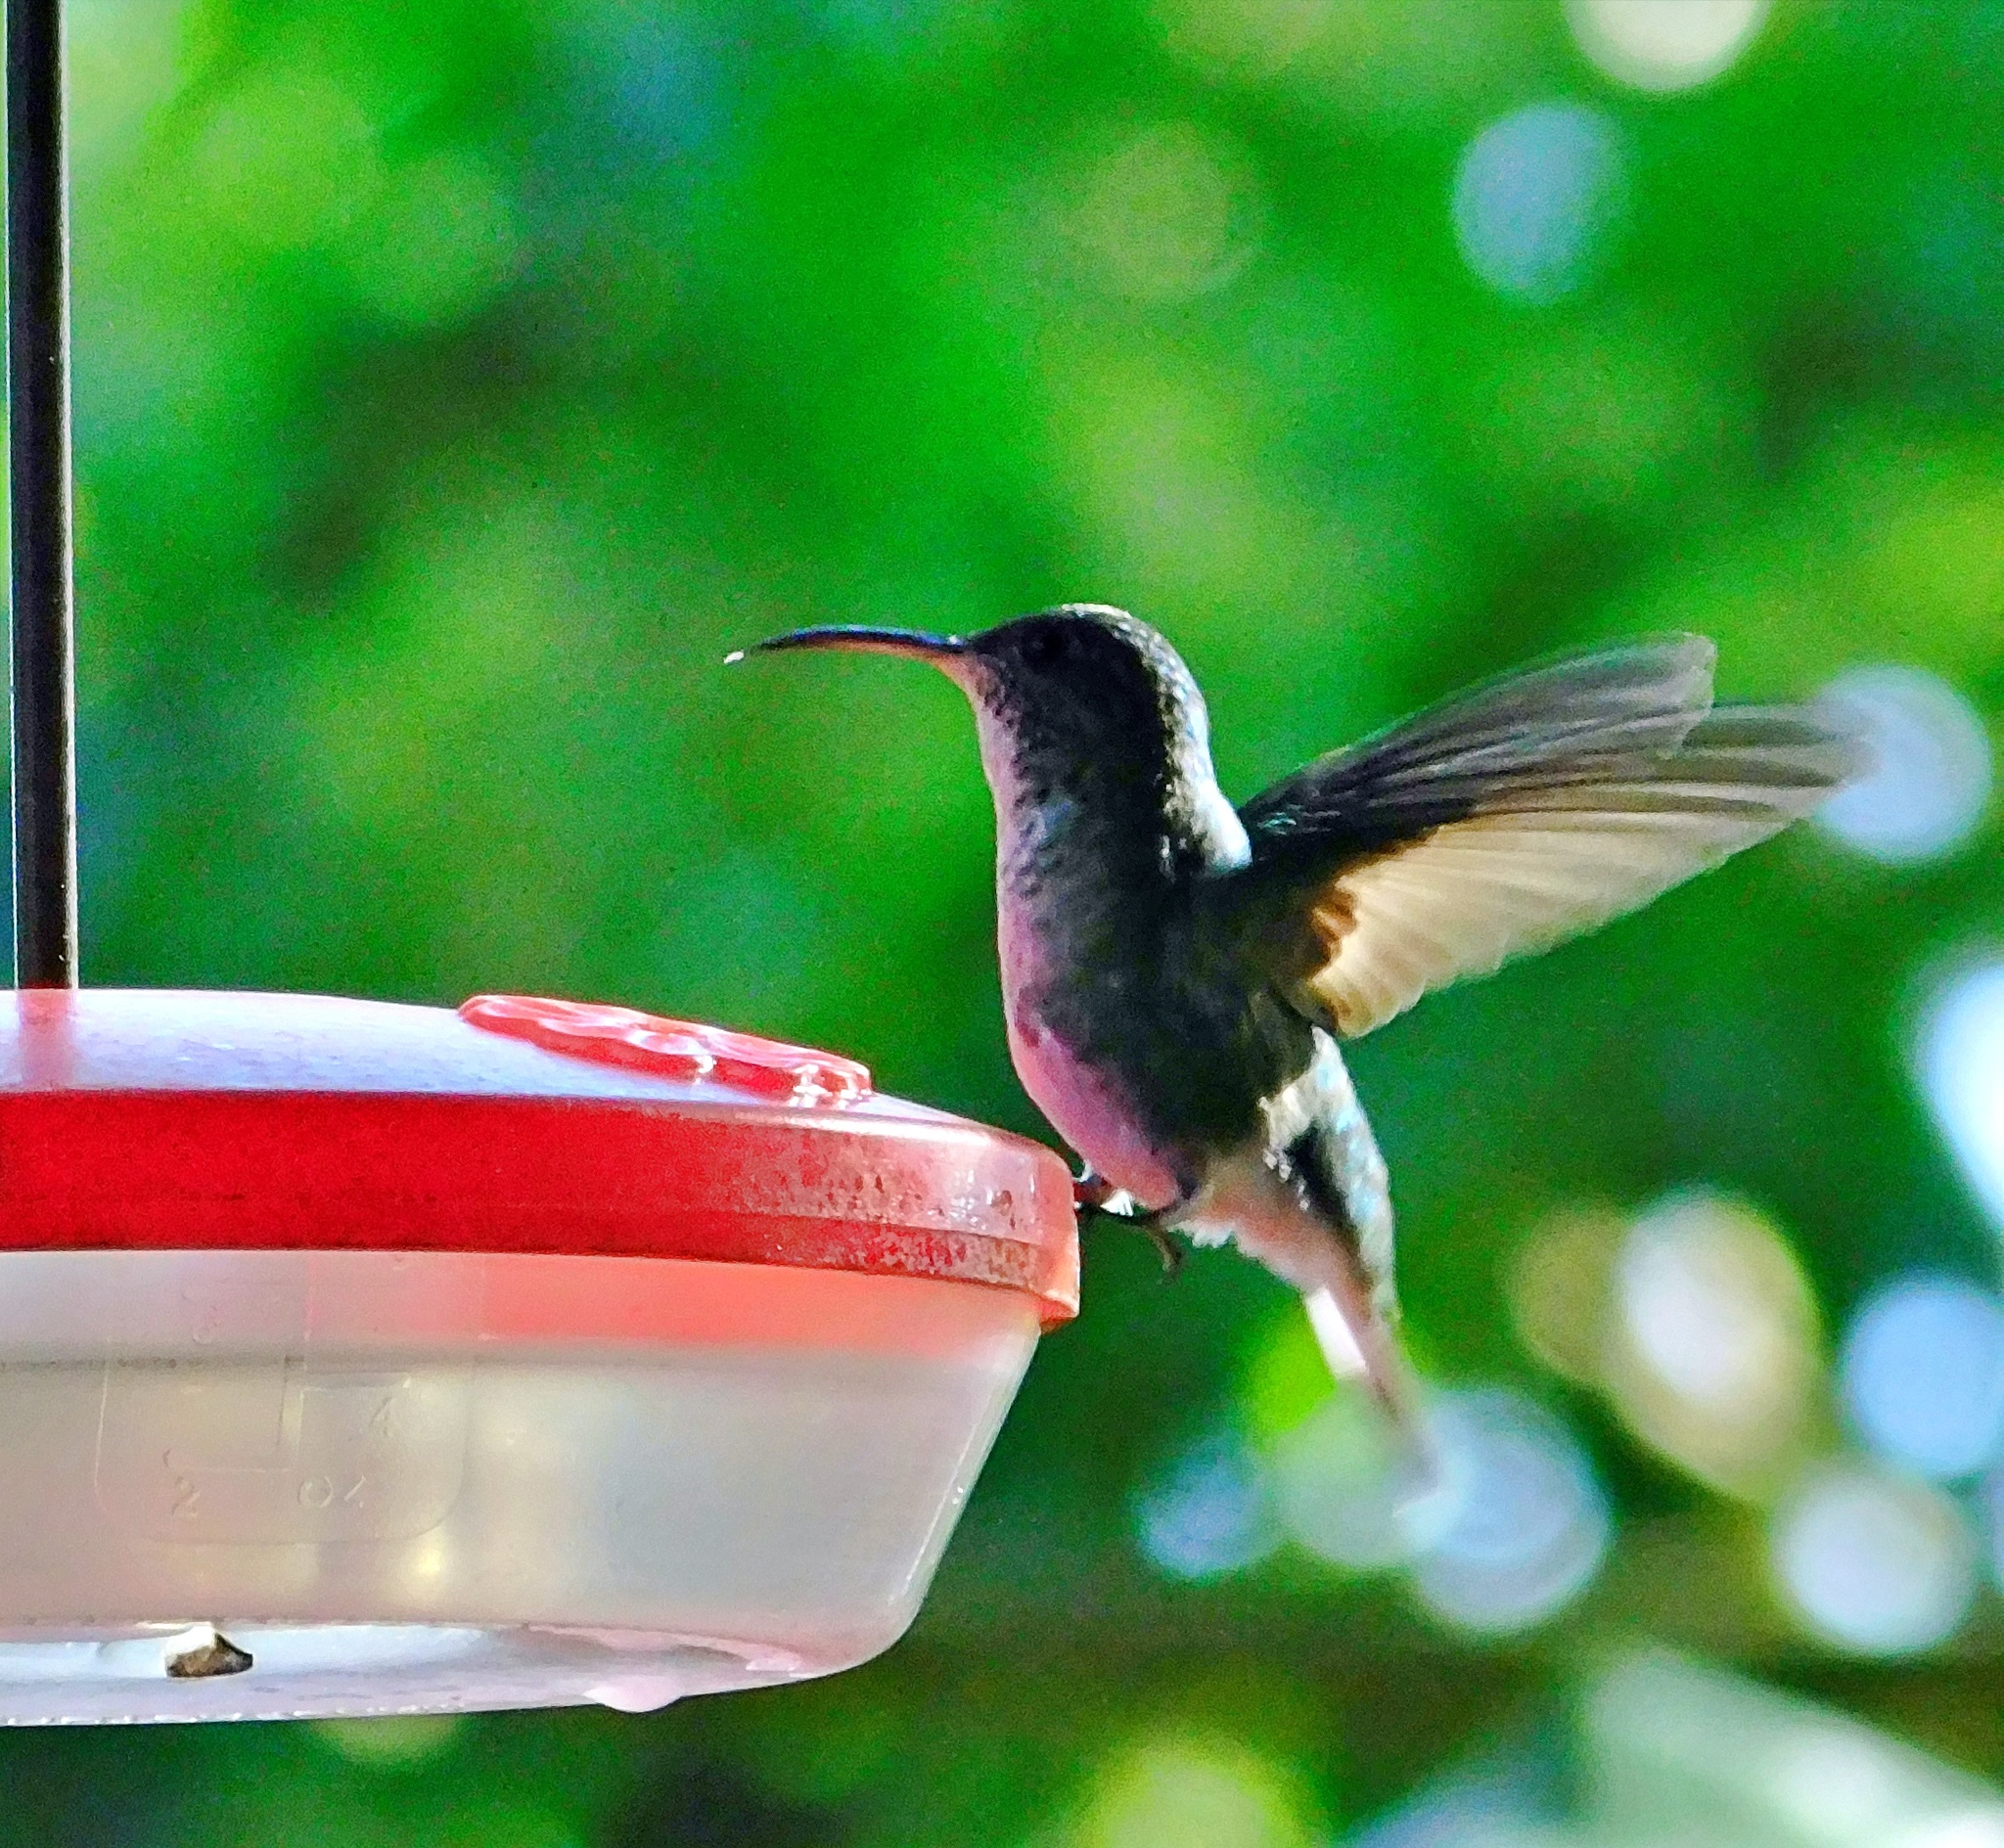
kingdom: Animalia
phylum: Chordata
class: Aves
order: Apodiformes
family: Trochilidae
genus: Microchera
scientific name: Microchera cupreiceps
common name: Coppery-headed emerald
